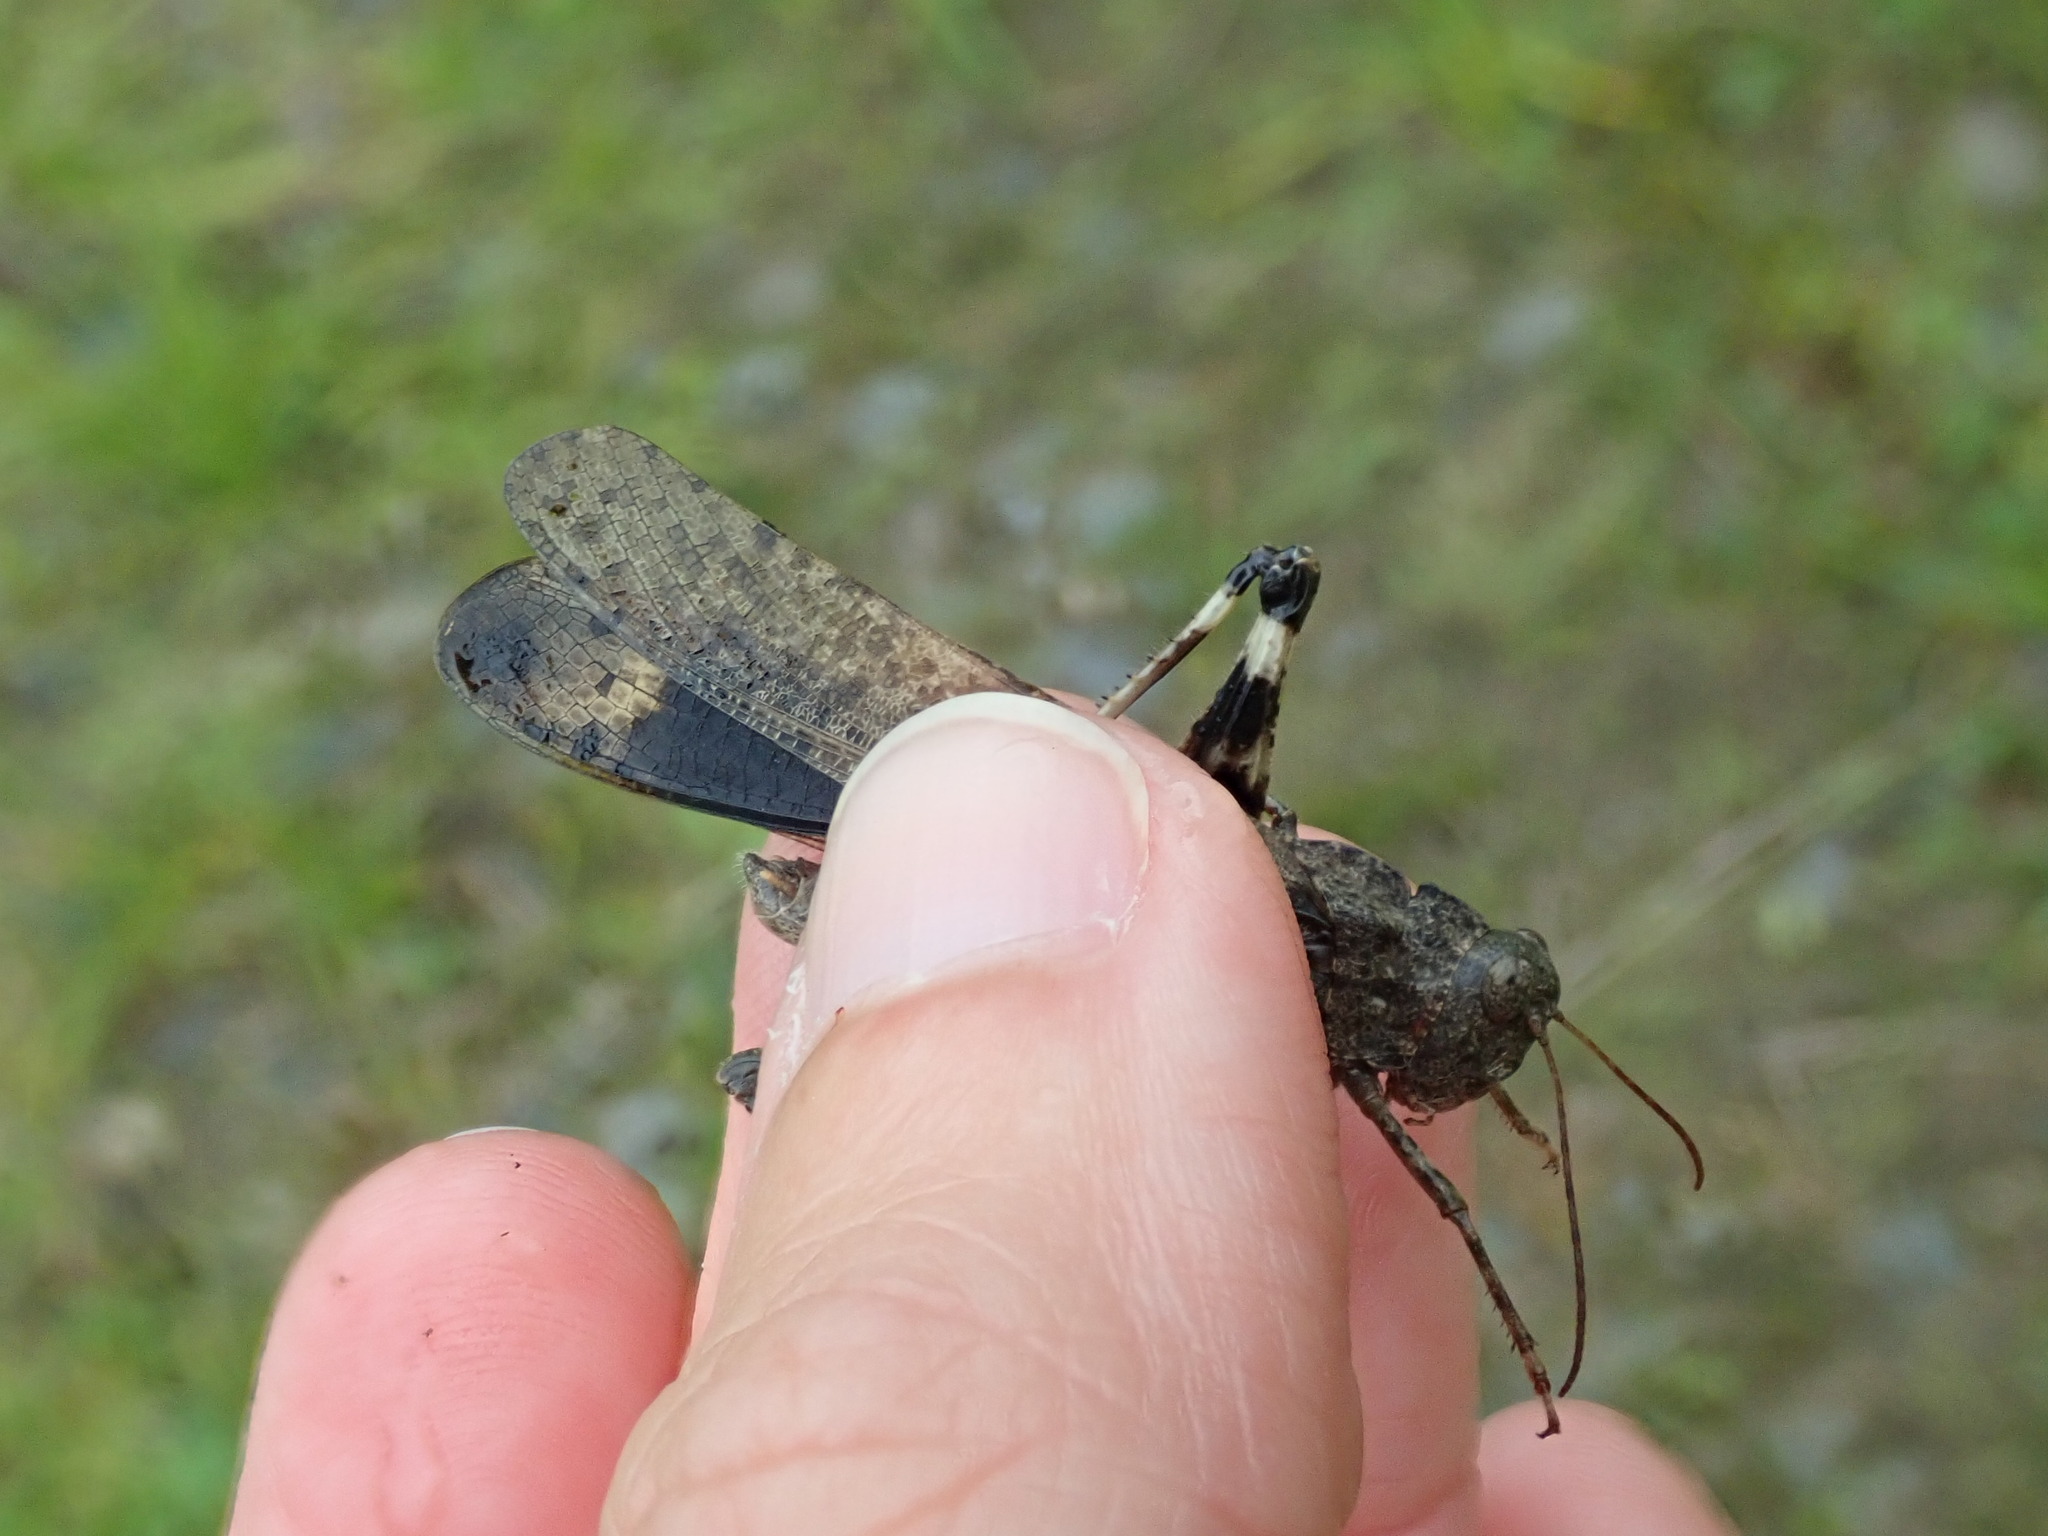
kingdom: Animalia
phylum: Arthropoda
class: Insecta
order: Orthoptera
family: Acrididae
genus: Dissosteira
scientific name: Dissosteira carolina
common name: Carolina grasshopper
